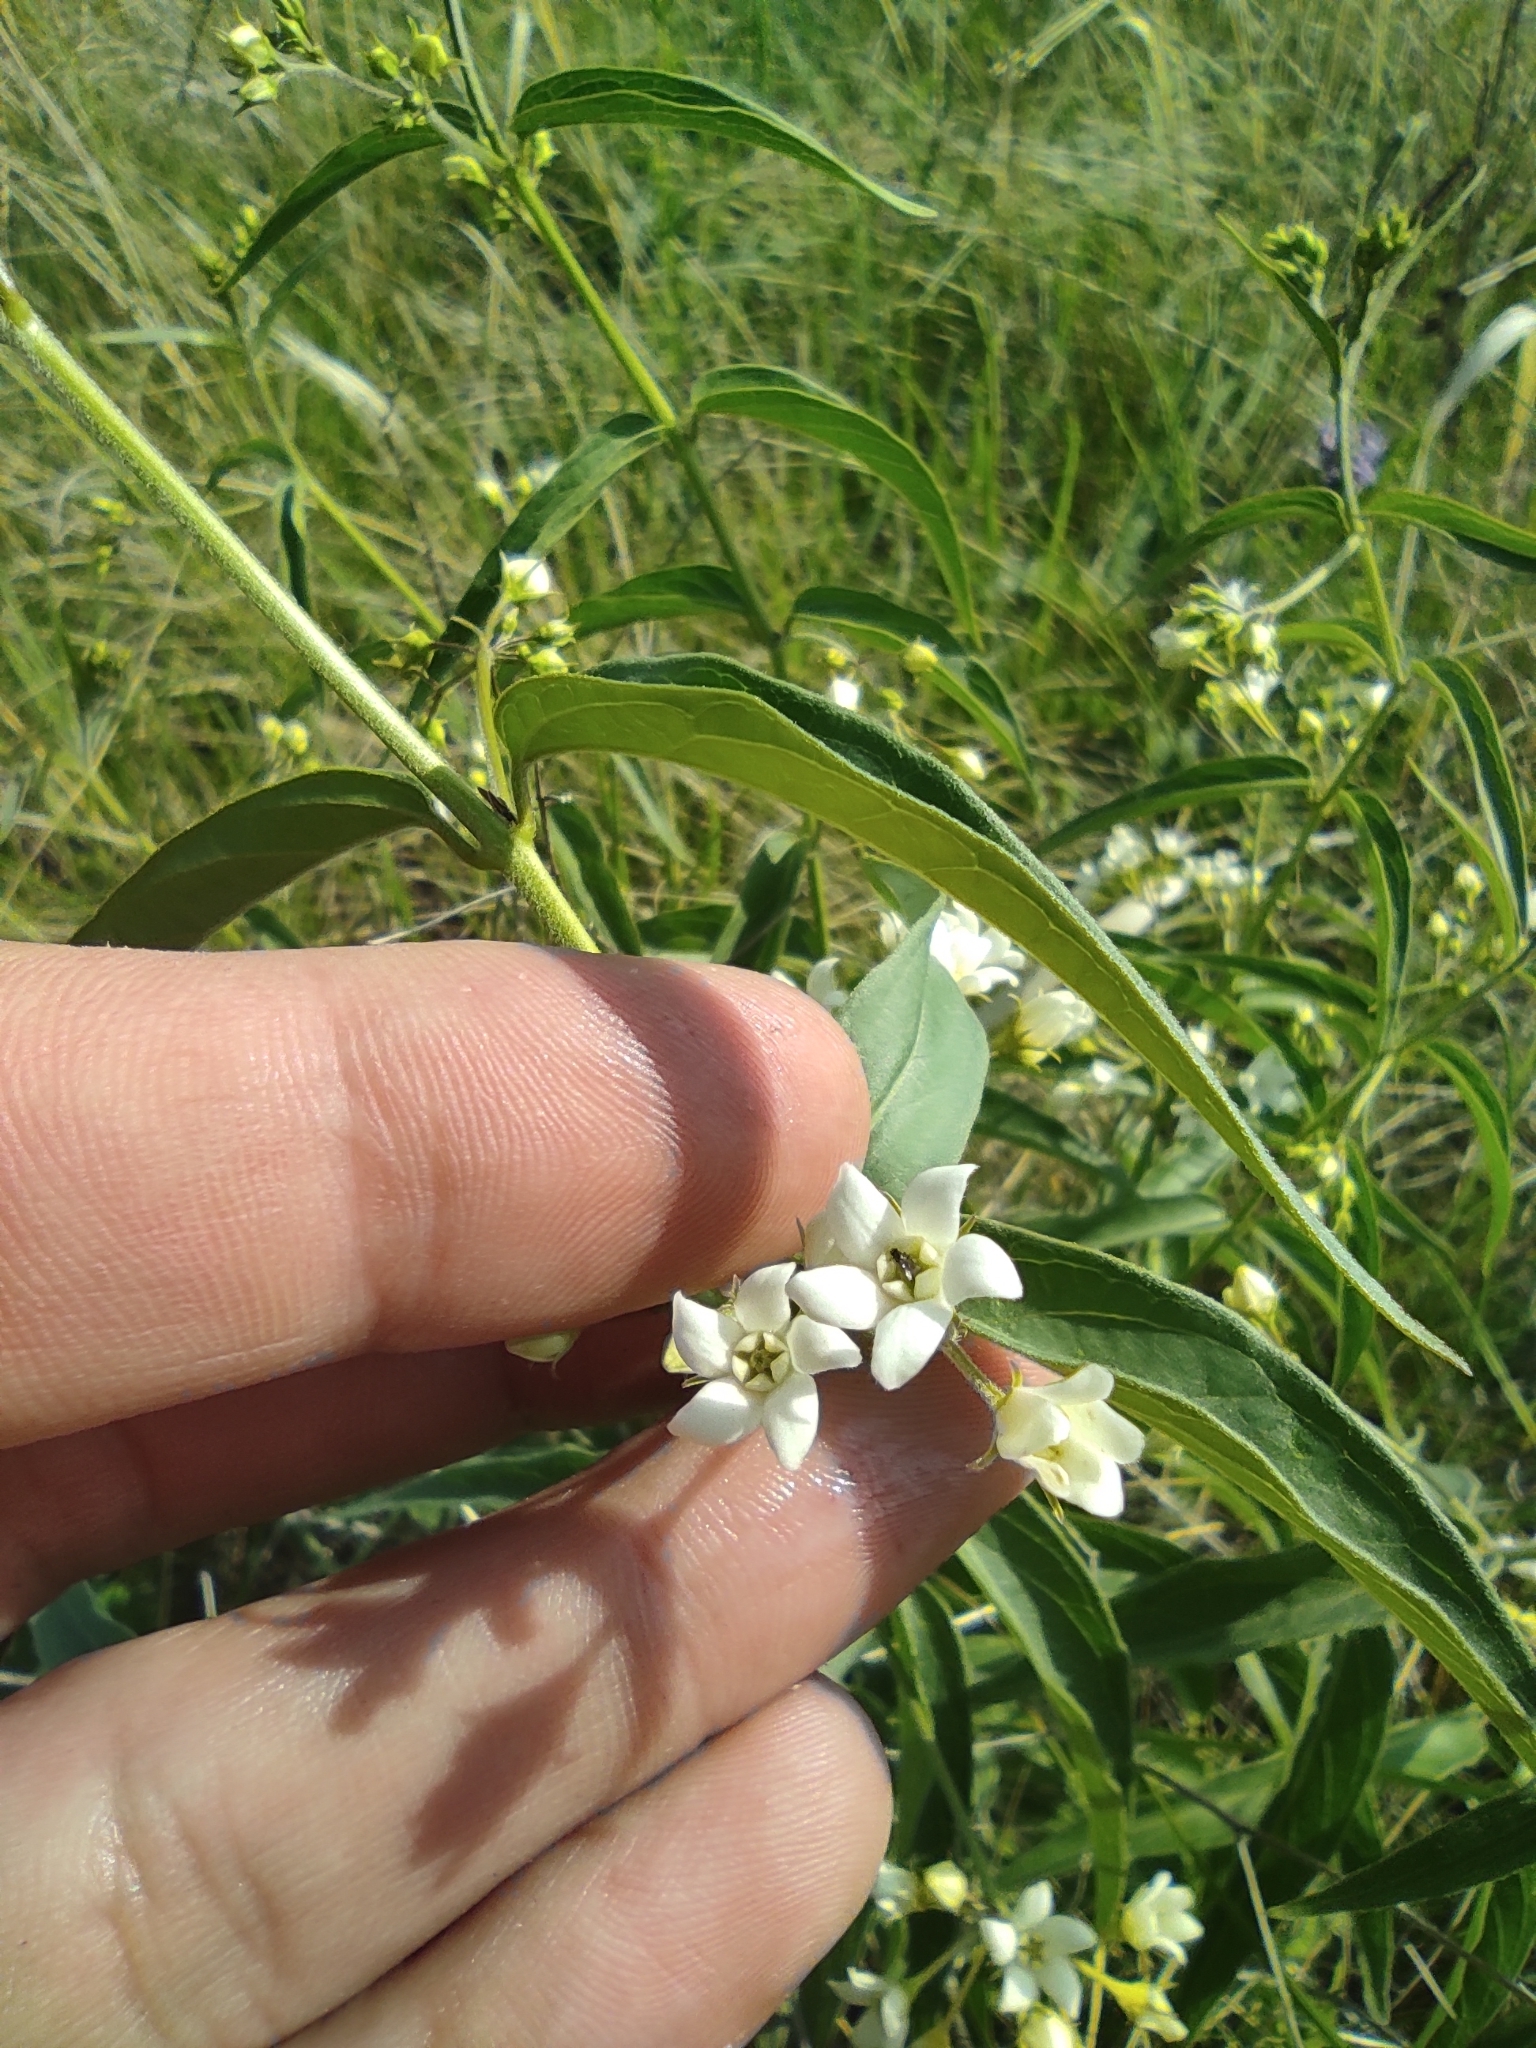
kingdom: Plantae
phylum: Tracheophyta
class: Magnoliopsida
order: Gentianales
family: Apocynaceae
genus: Vincetoxicum
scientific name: Vincetoxicum hirundinaria
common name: White swallowwort
